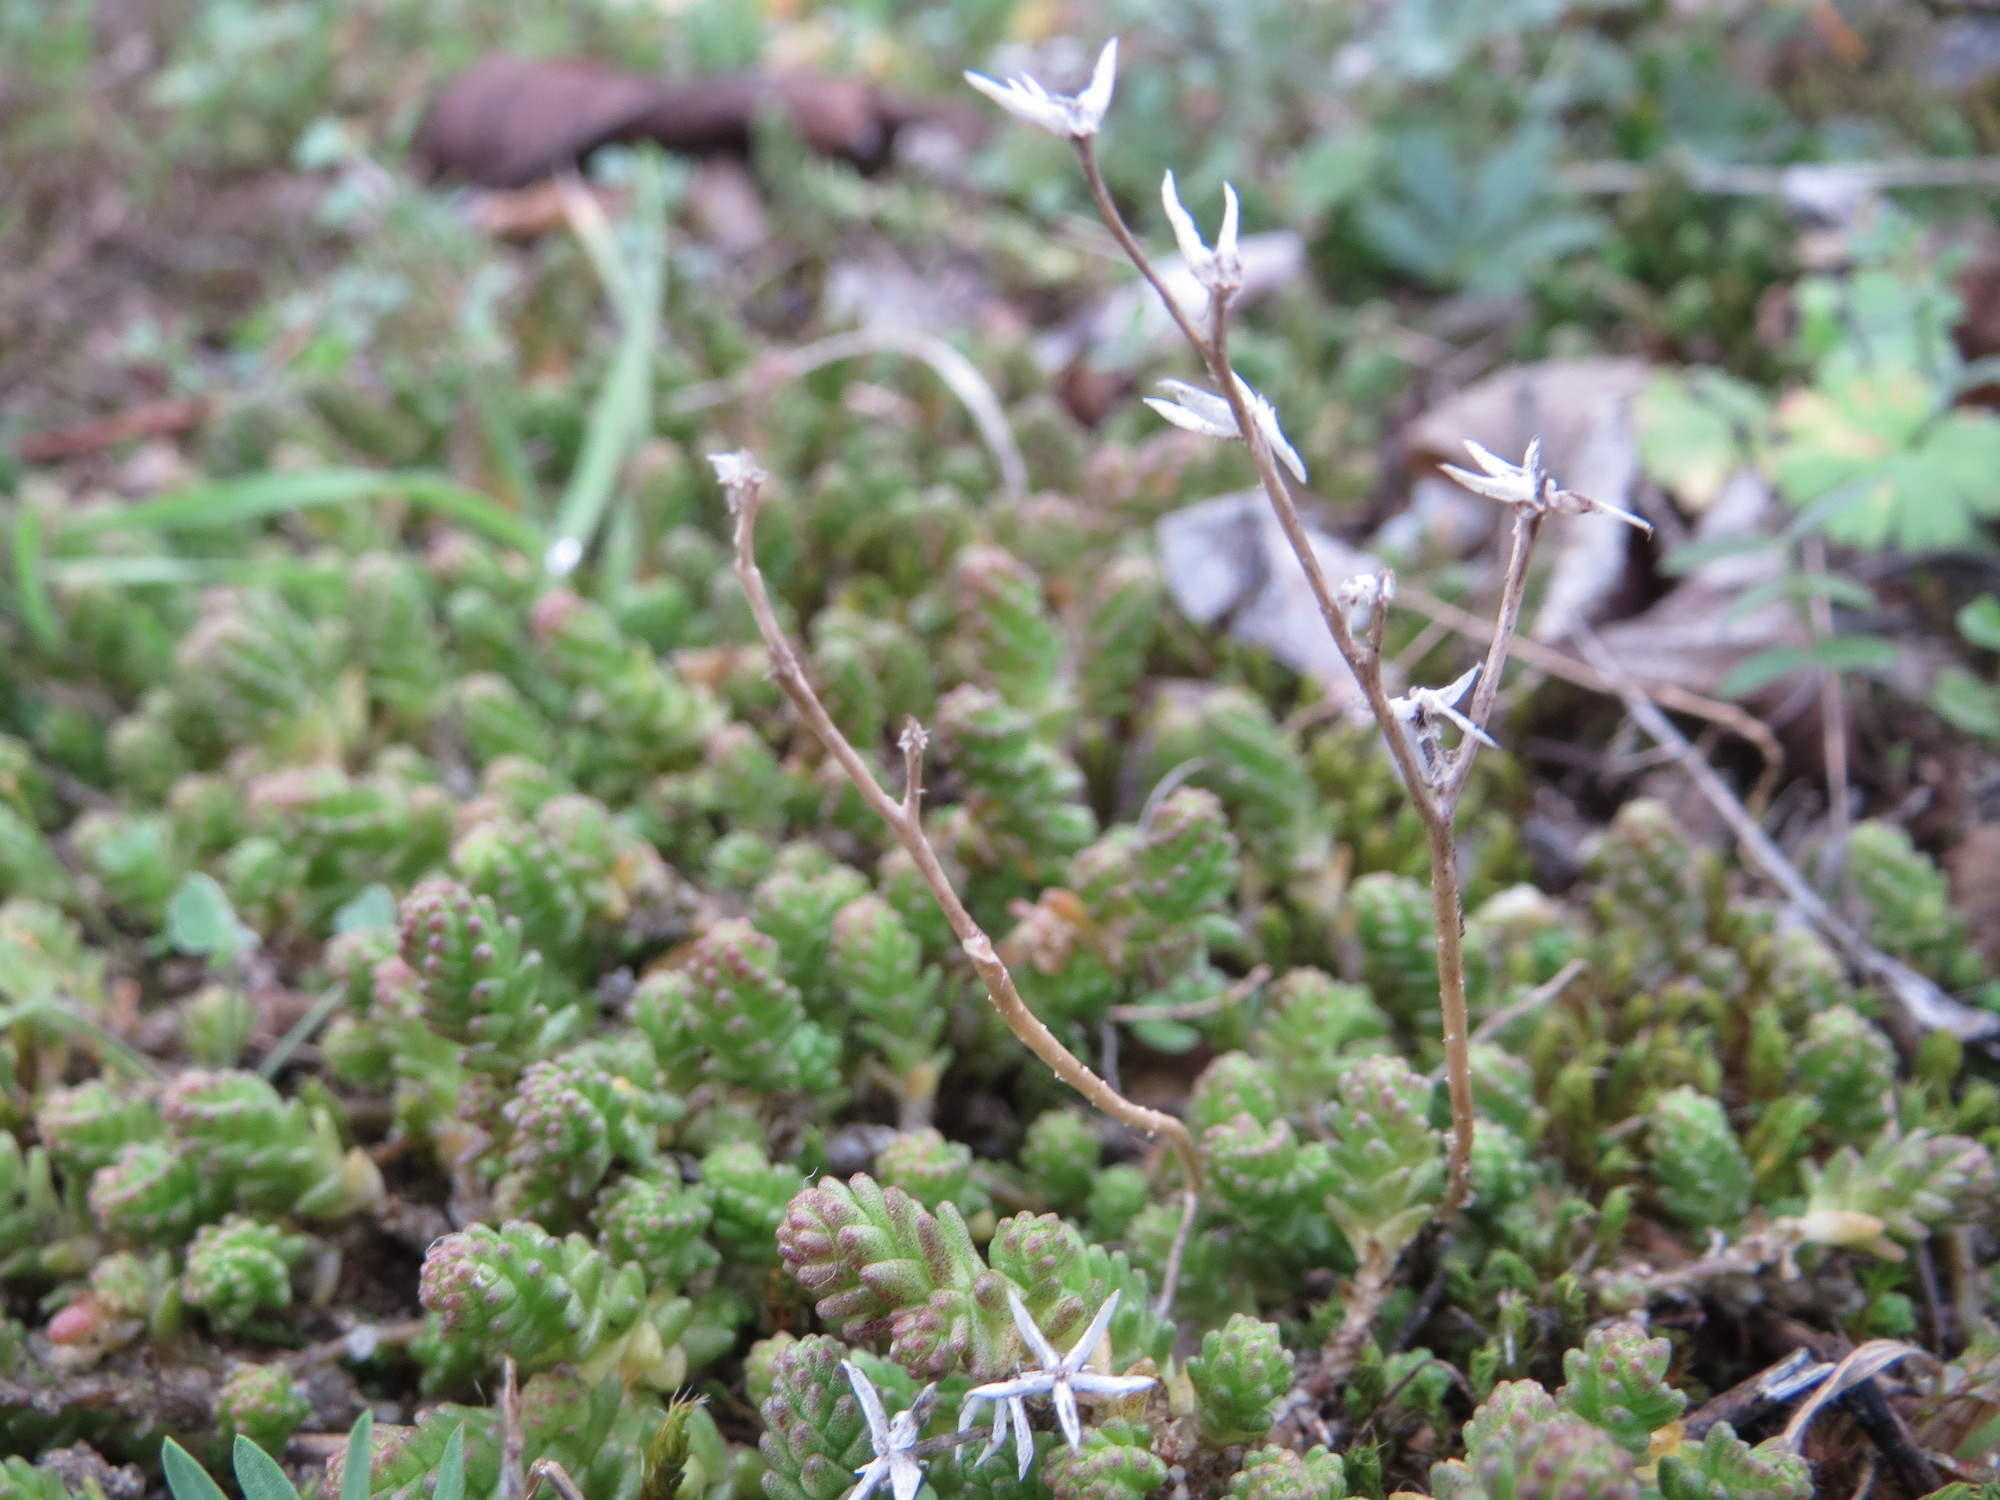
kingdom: Plantae
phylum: Tracheophyta
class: Magnoliopsida
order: Saxifragales
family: Crassulaceae
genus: Sedum
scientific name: Sedum acre
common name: Biting stonecrop
